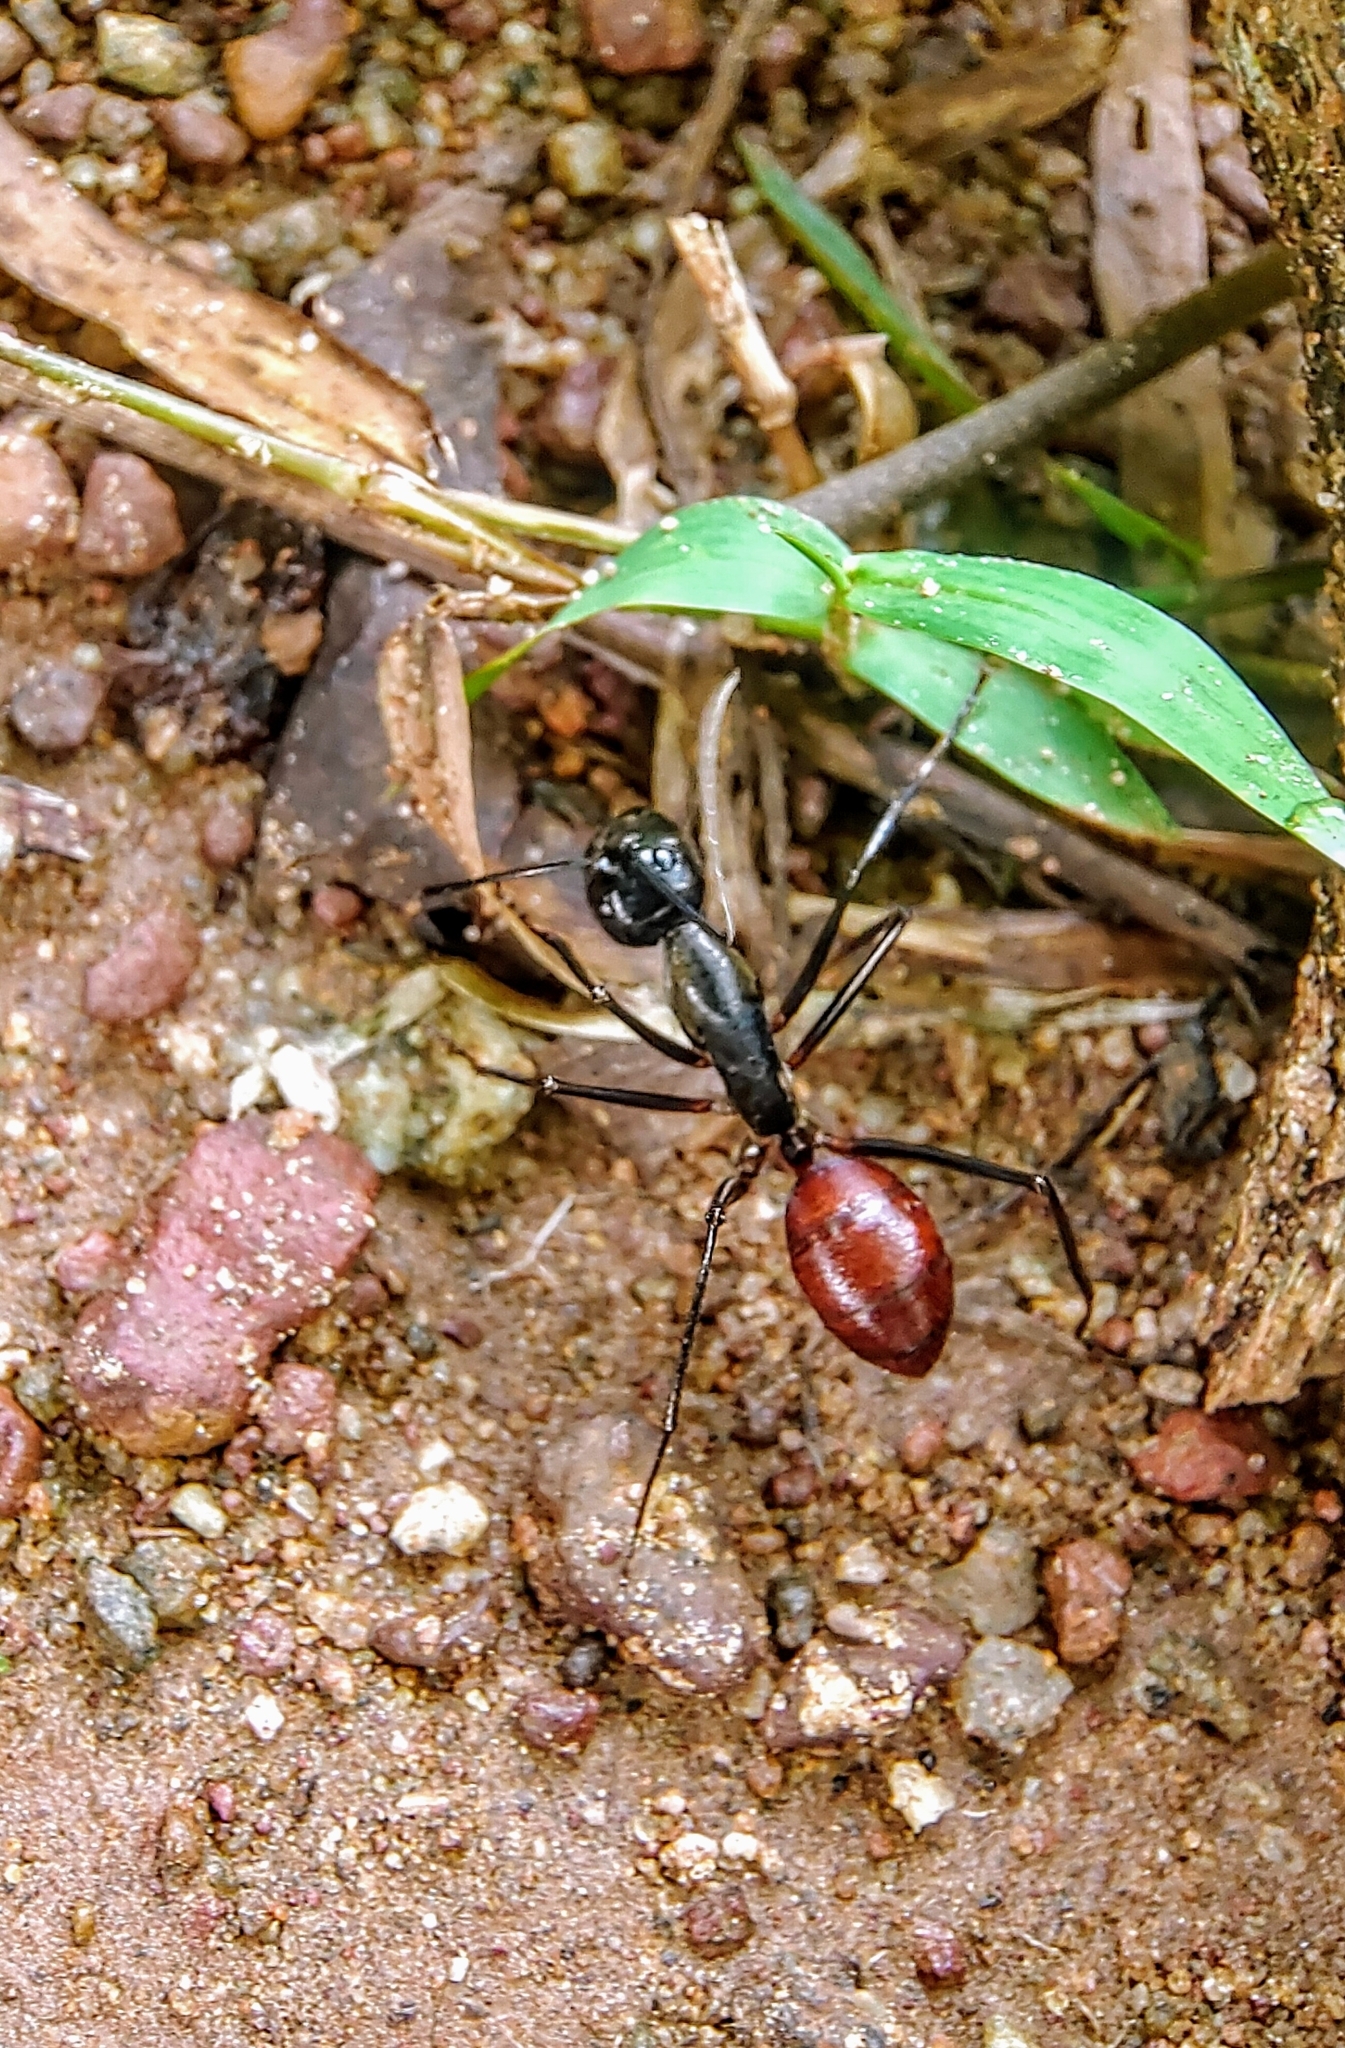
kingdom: Animalia
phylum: Arthropoda
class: Insecta
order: Hymenoptera
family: Formicidae
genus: Dinomyrmex
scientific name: Dinomyrmex
